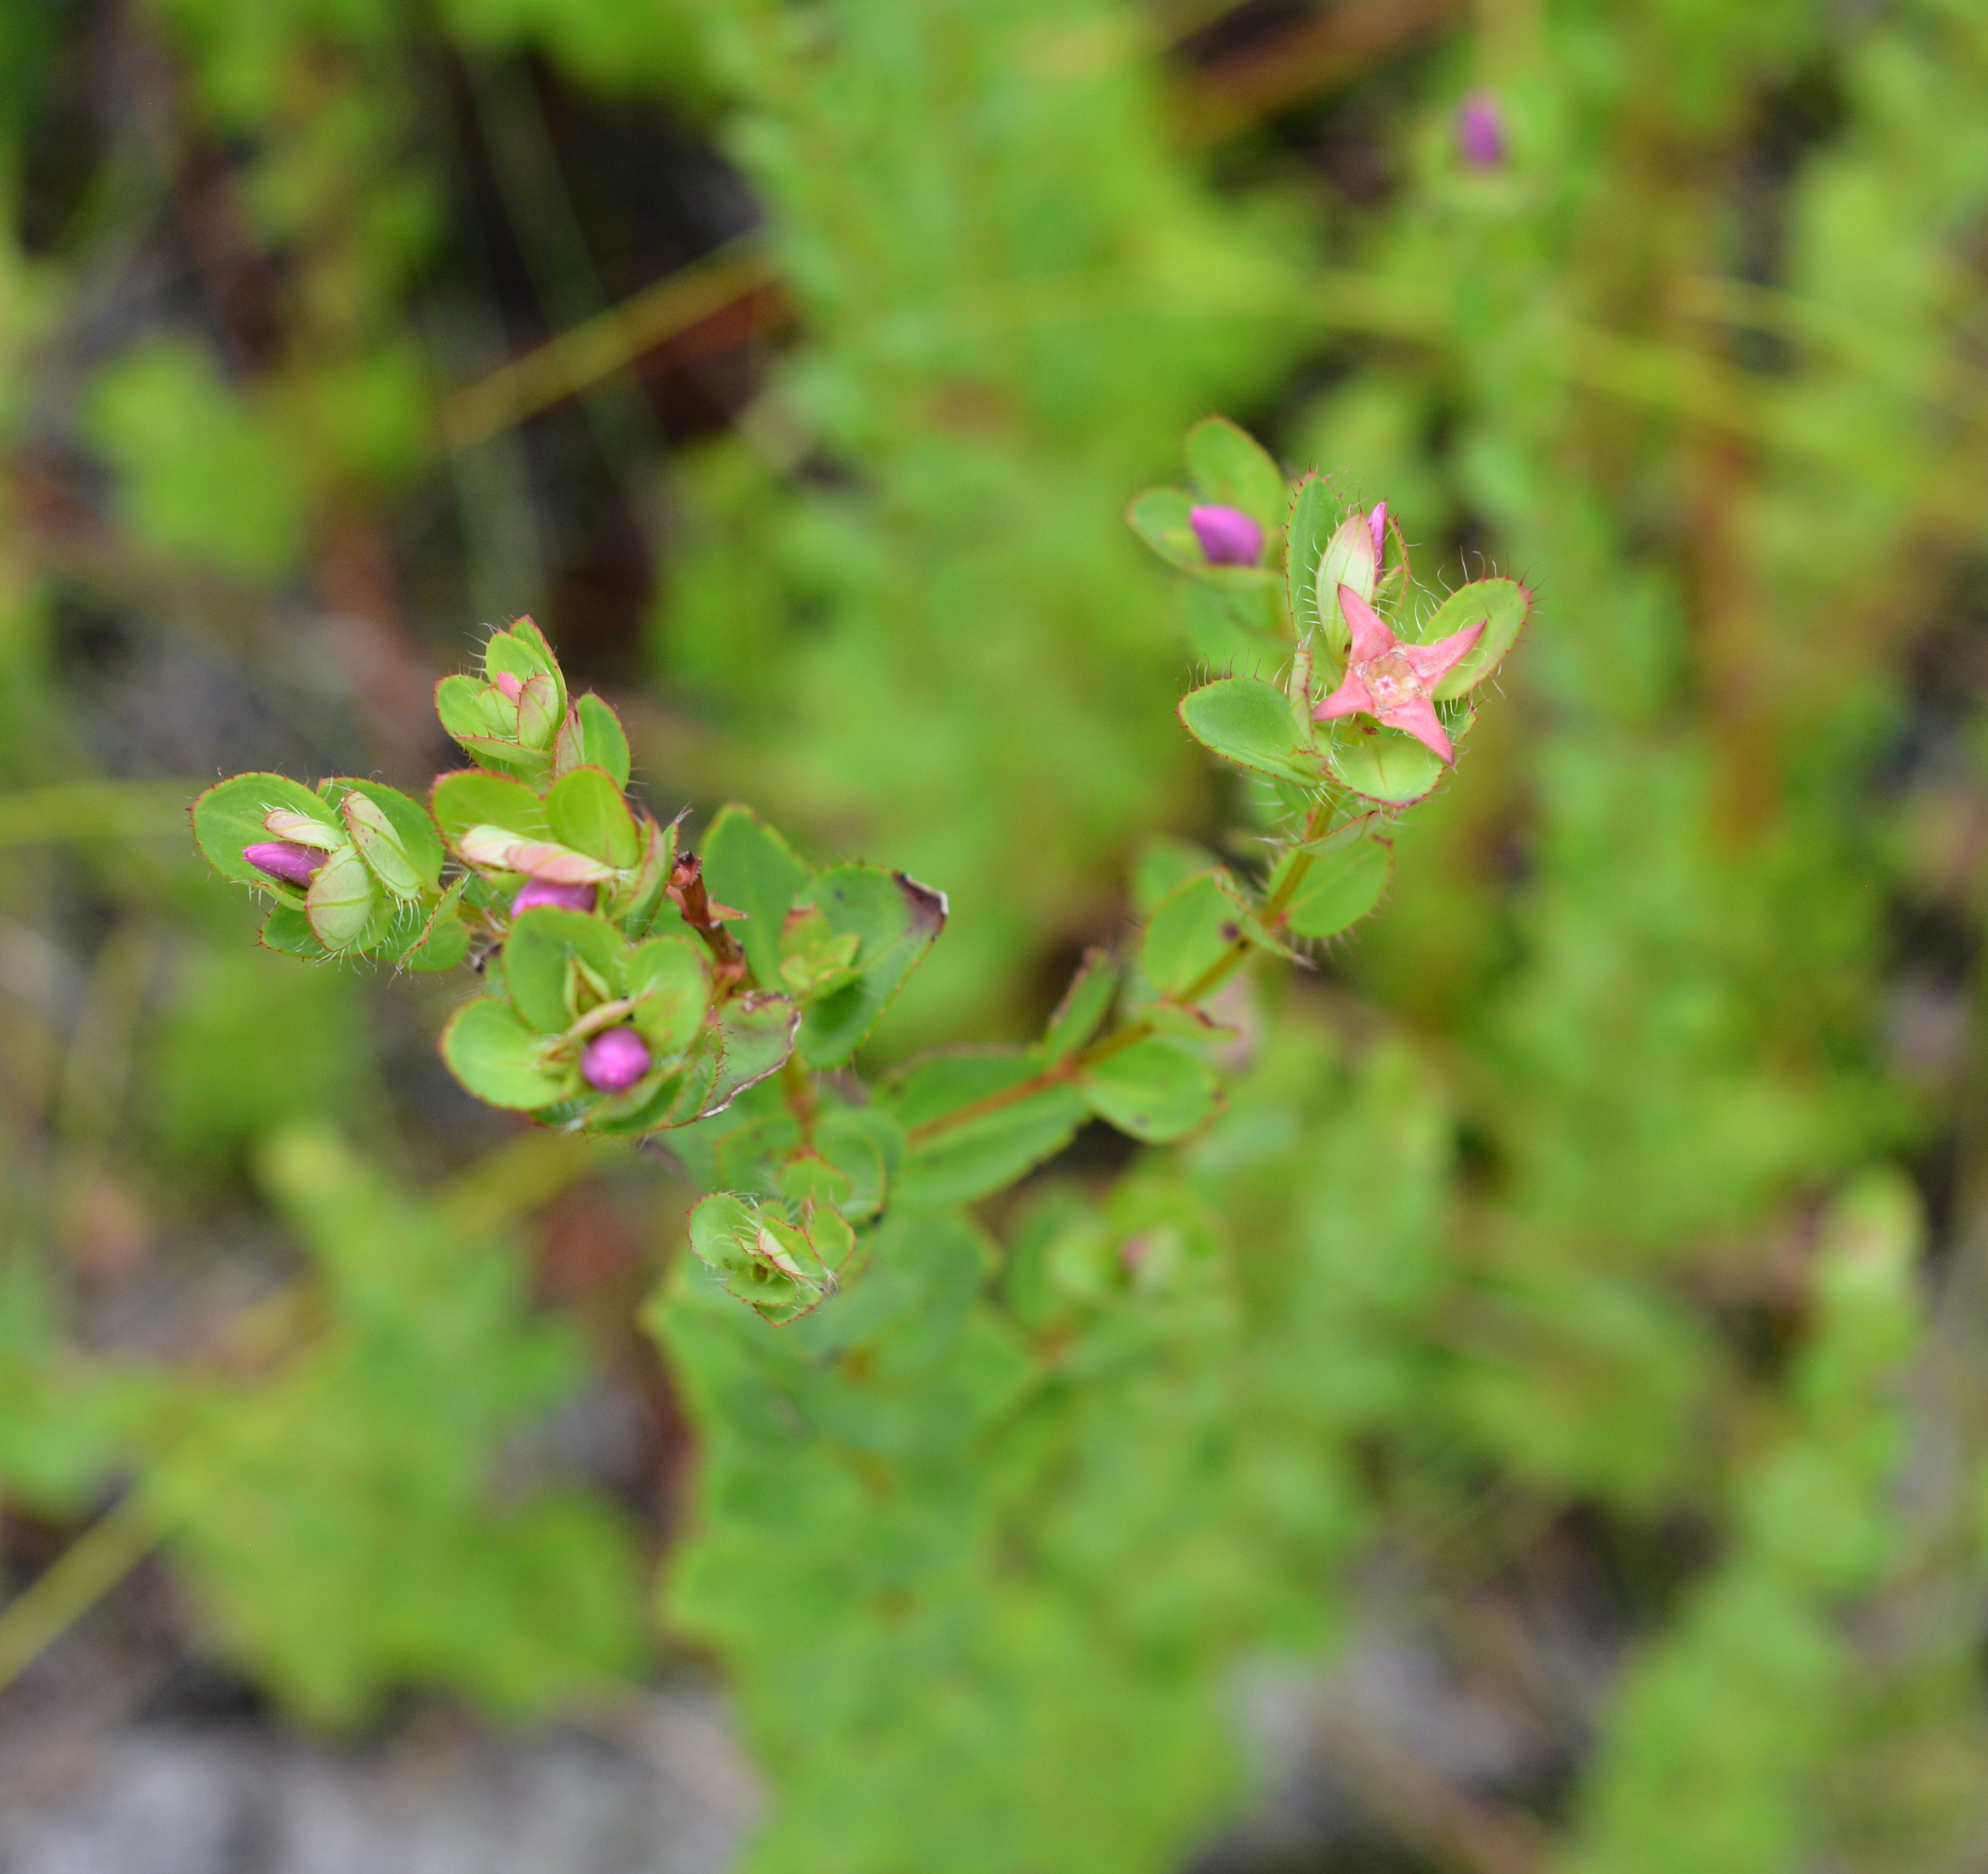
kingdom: Plantae
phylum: Tracheophyta
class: Magnoliopsida
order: Myrtales
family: Melastomataceae
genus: Rhexia
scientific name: Rhexia petiolata
